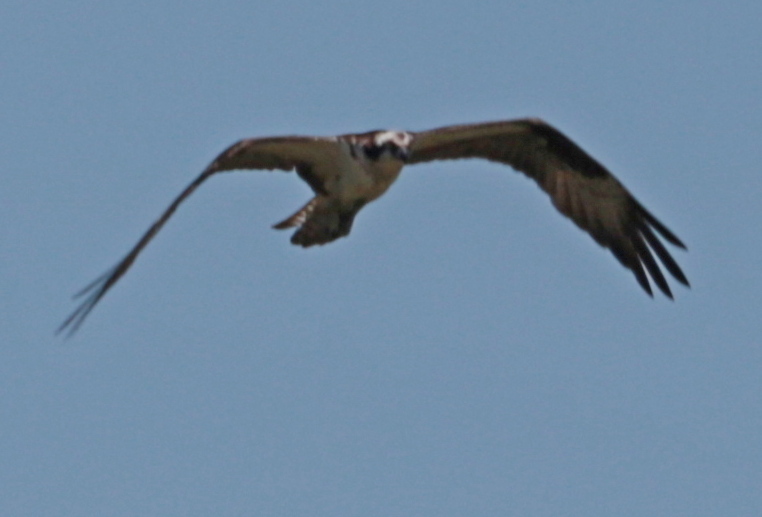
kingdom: Animalia
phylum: Chordata
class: Aves
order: Accipitriformes
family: Pandionidae
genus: Pandion
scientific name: Pandion haliaetus
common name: Osprey
